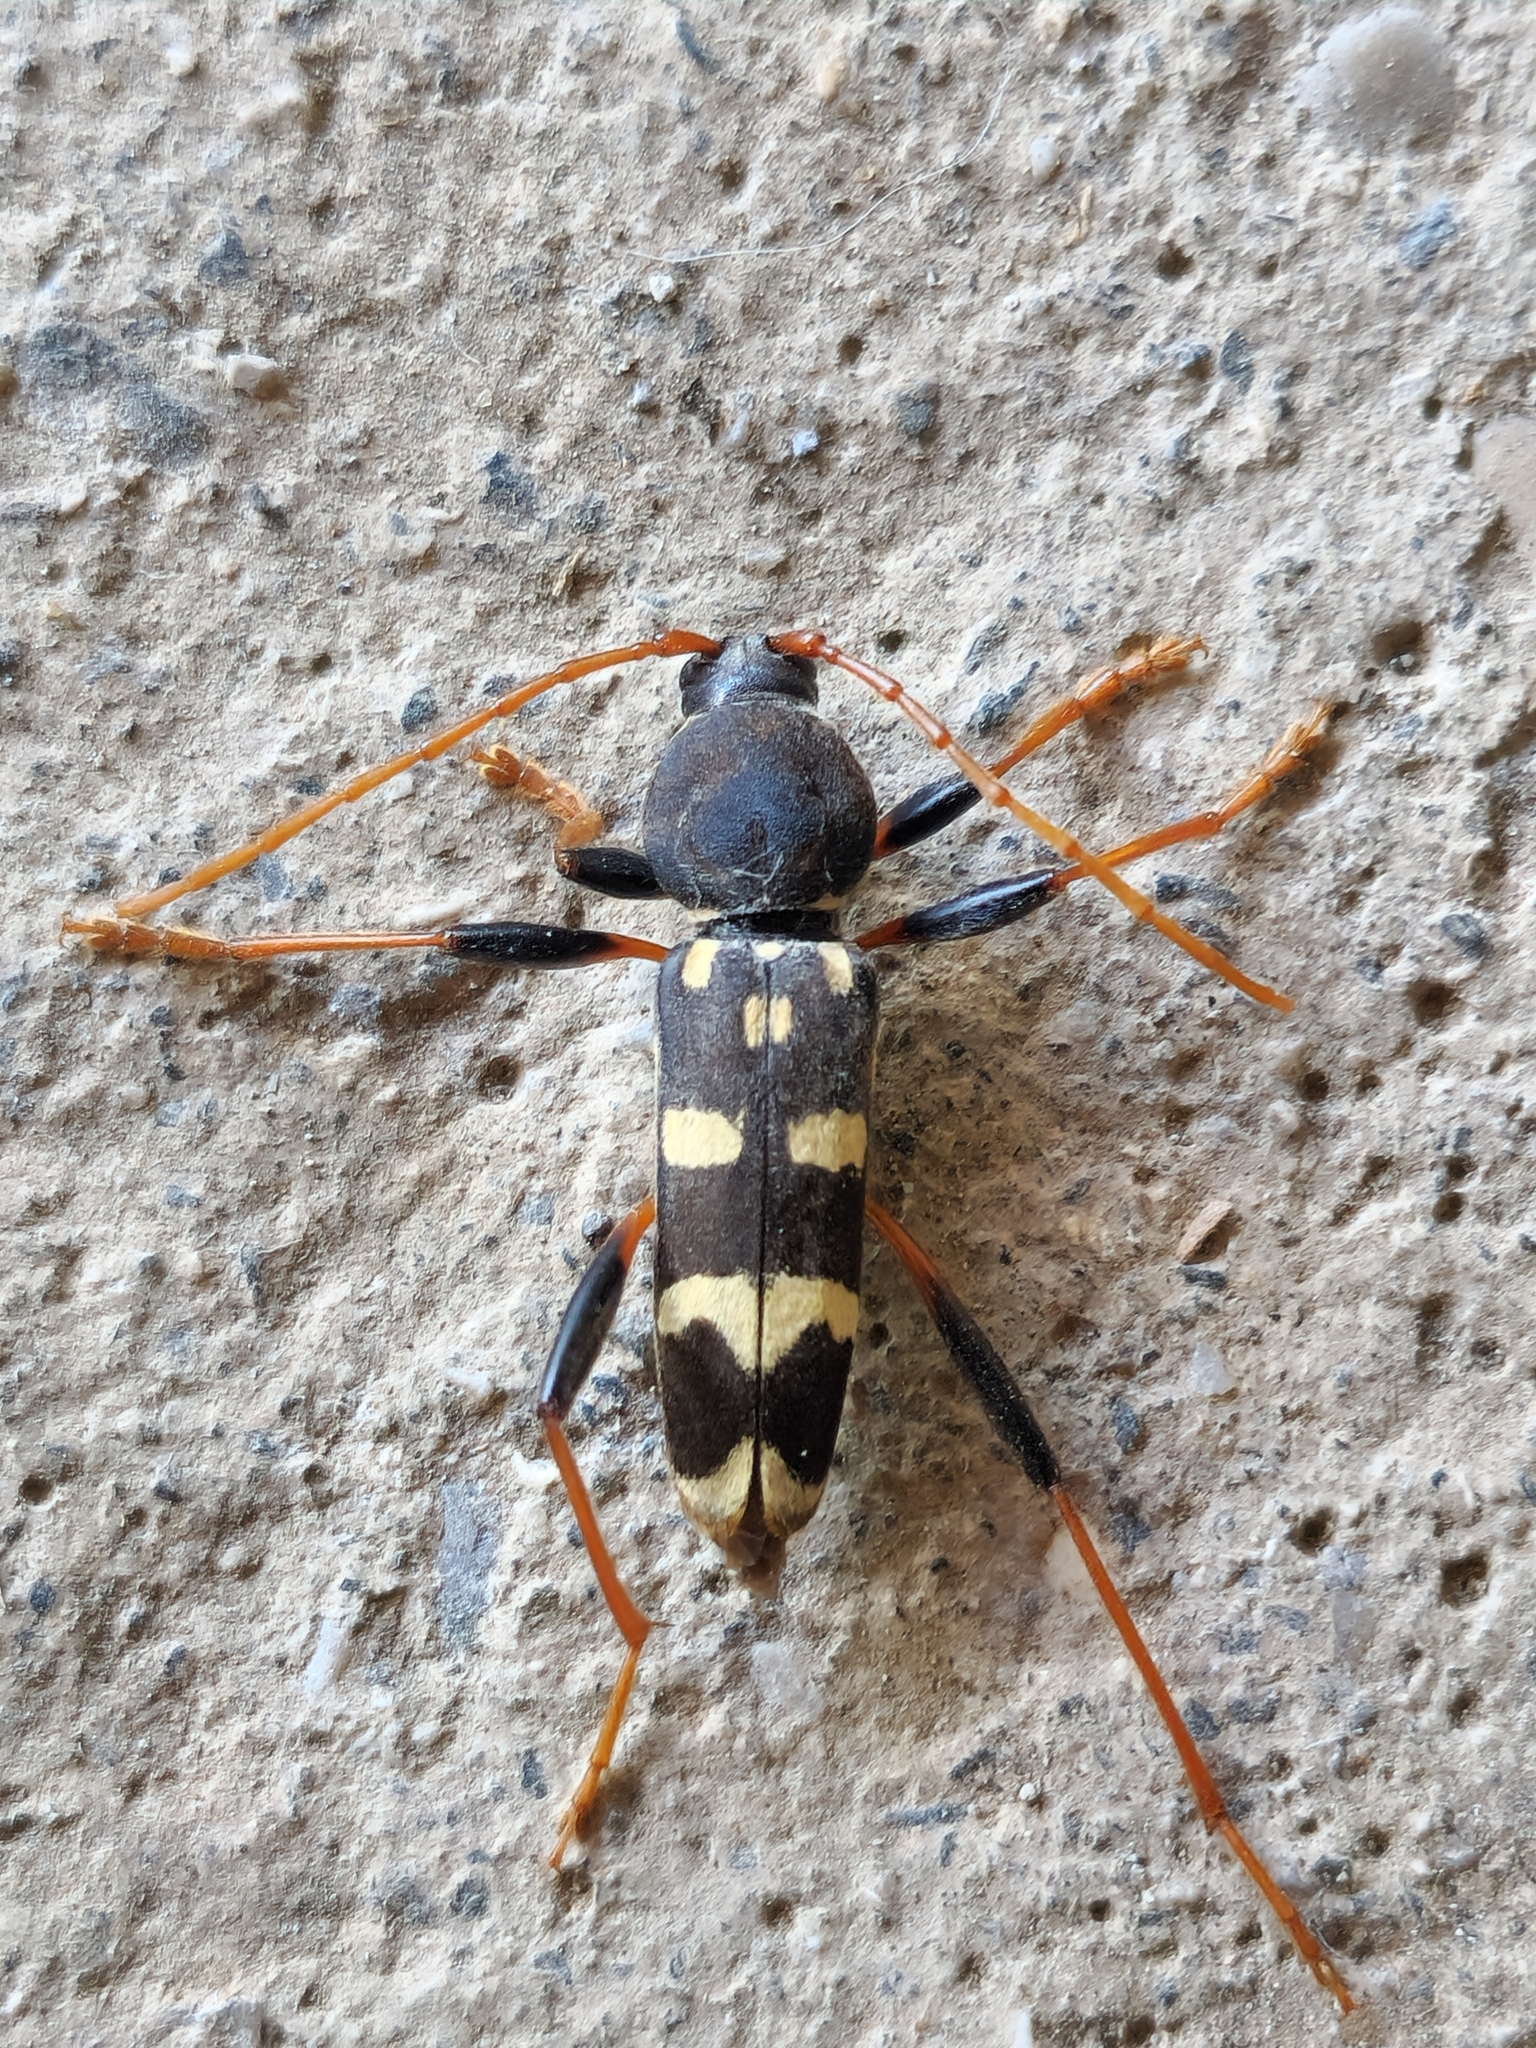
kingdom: Animalia
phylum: Arthropoda
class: Insecta
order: Coleoptera
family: Cerambycidae
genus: Isotomus
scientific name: Isotomus speciosus
